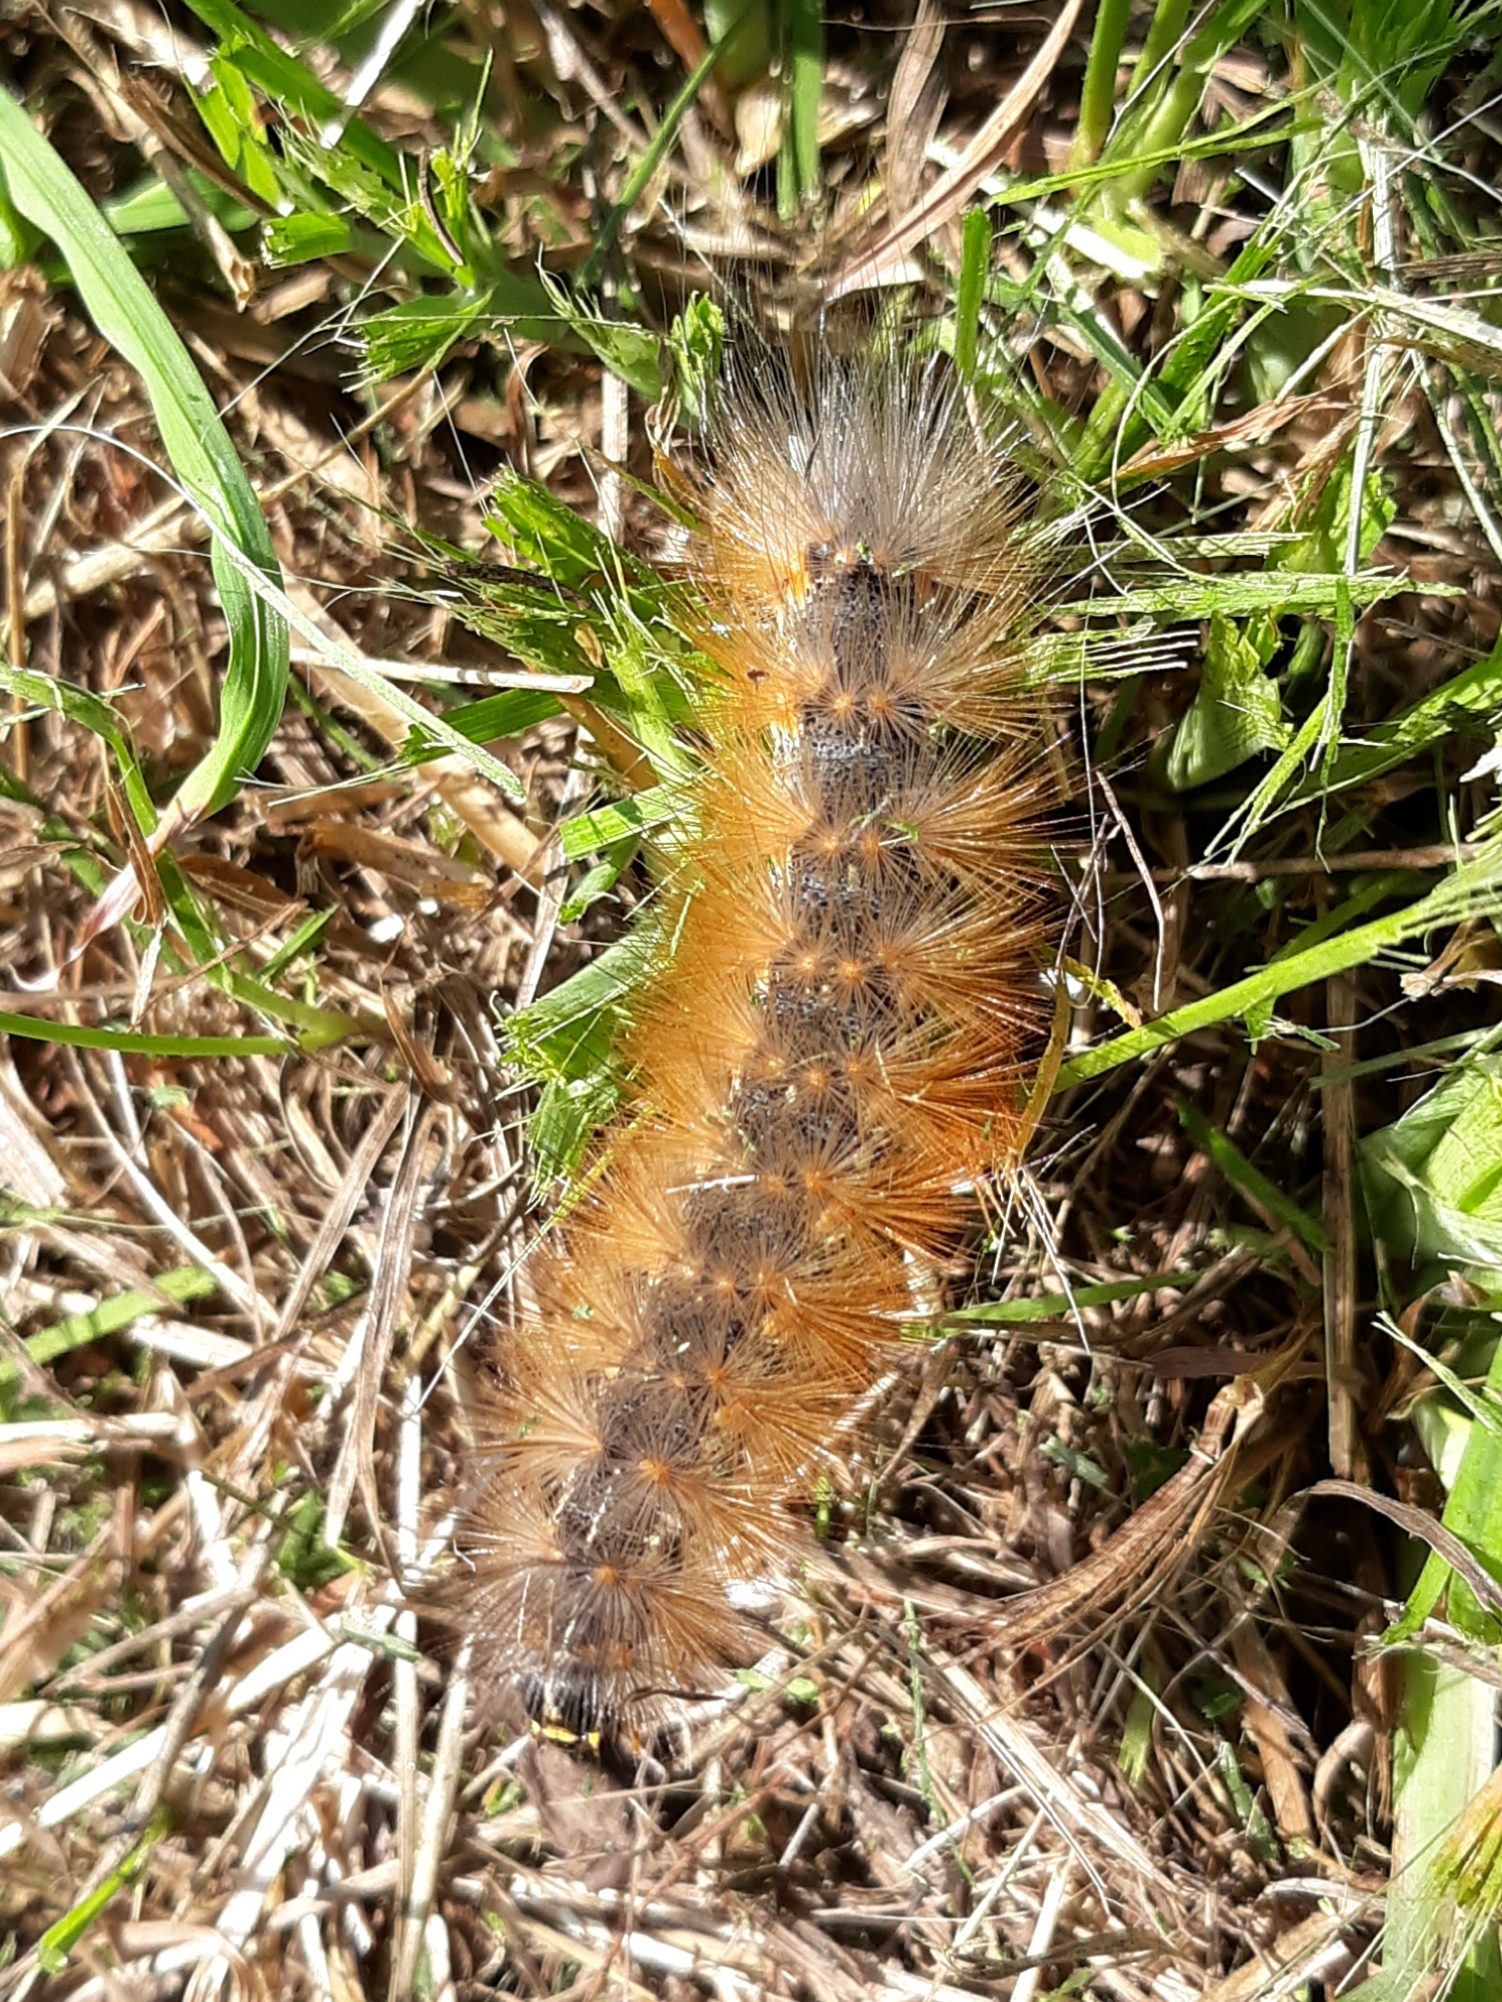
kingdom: Animalia
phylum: Arthropoda
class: Insecta
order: Lepidoptera
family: Erebidae
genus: Estigmene
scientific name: Estigmene acrea
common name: Salt marsh moth
